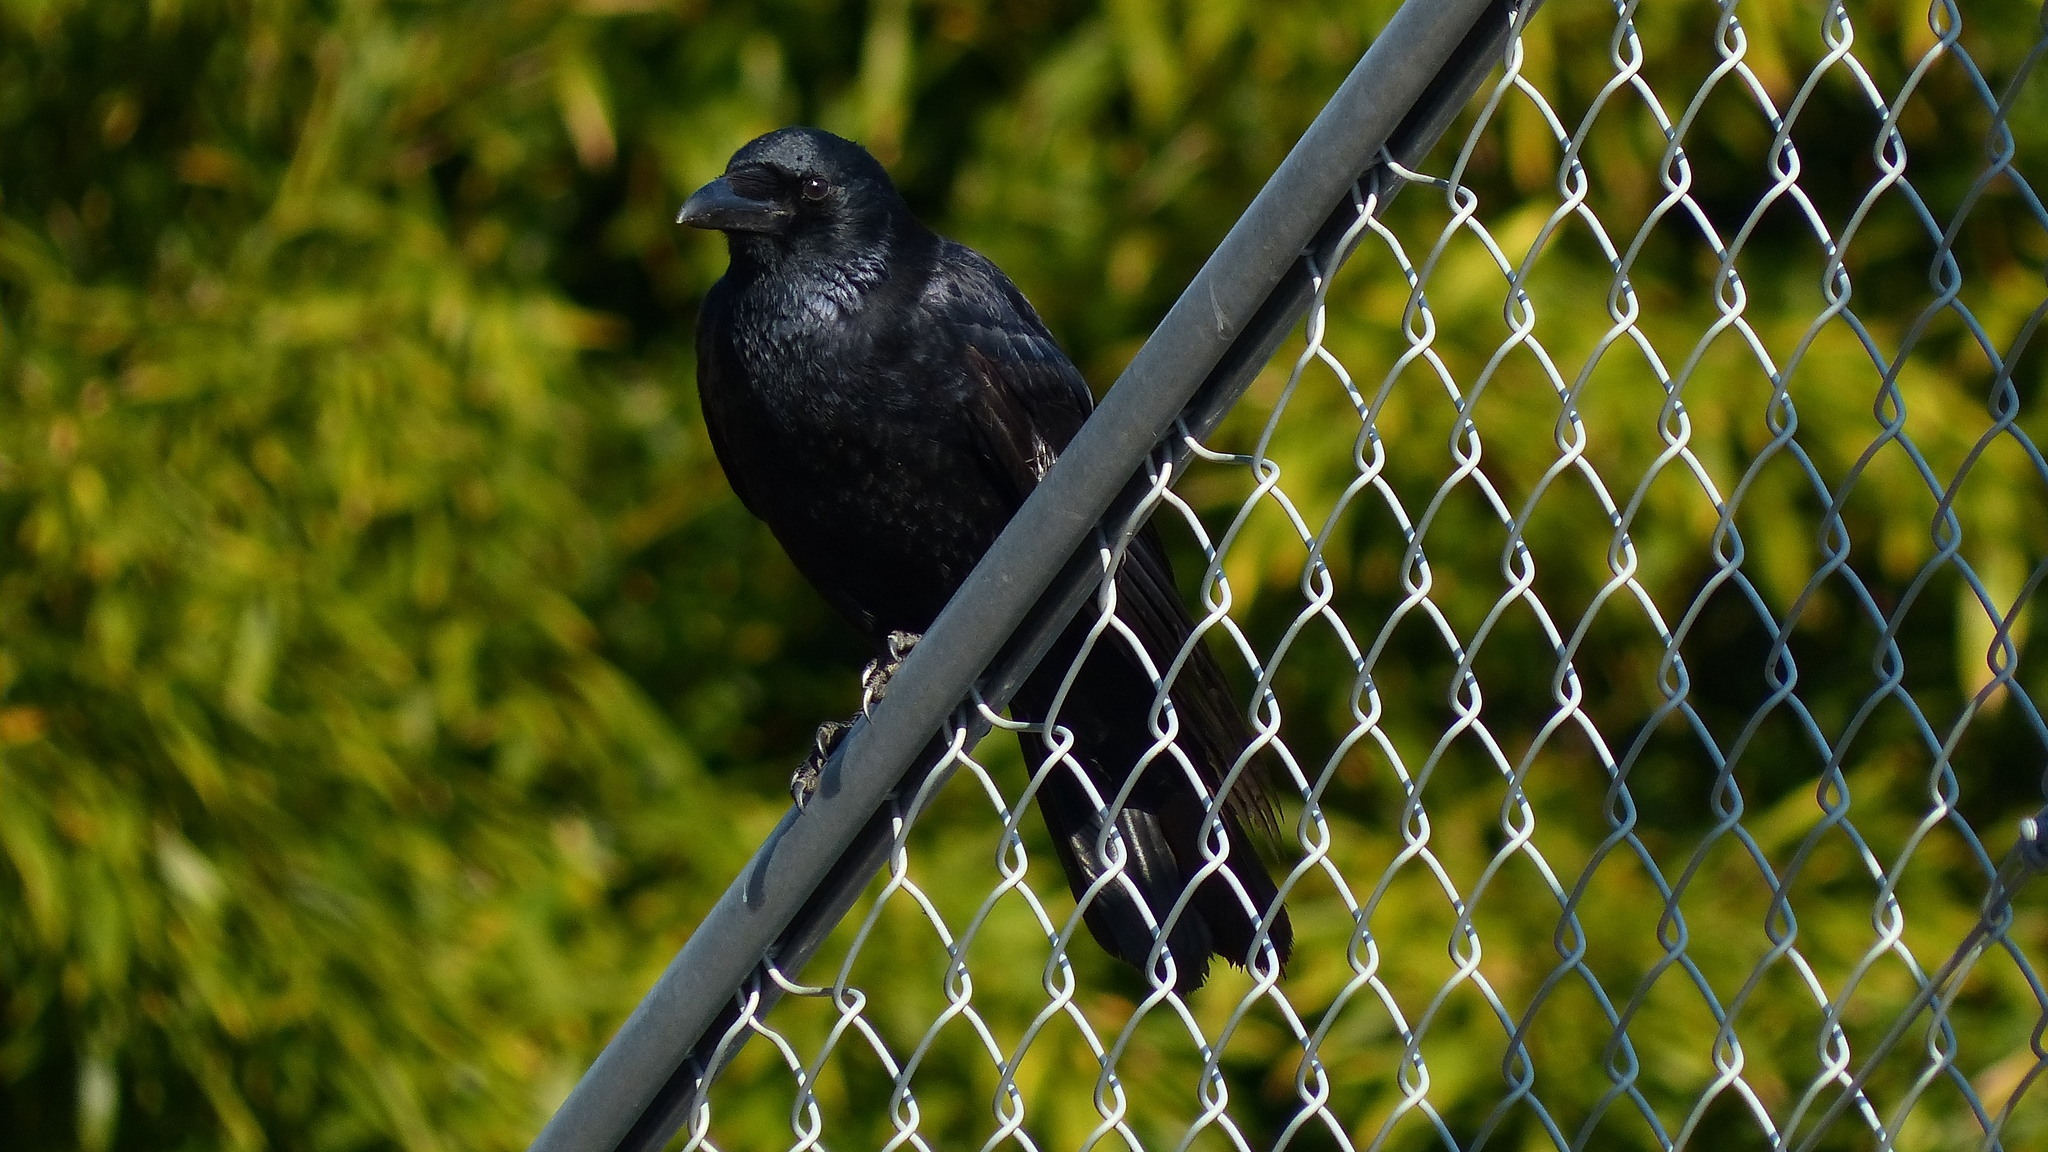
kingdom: Animalia
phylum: Chordata
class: Aves
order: Passeriformes
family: Corvidae
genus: Corvus
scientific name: Corvus corone
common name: Carrion crow
